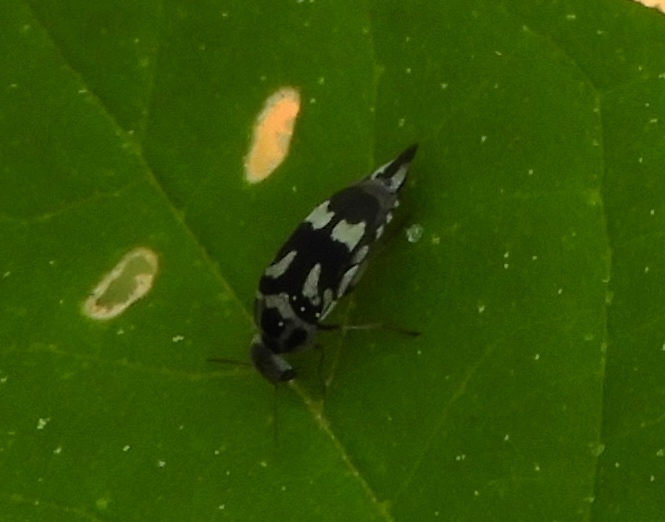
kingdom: Animalia
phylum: Arthropoda
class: Insecta
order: Coleoptera
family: Mordellidae
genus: Mordella
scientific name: Mordella
